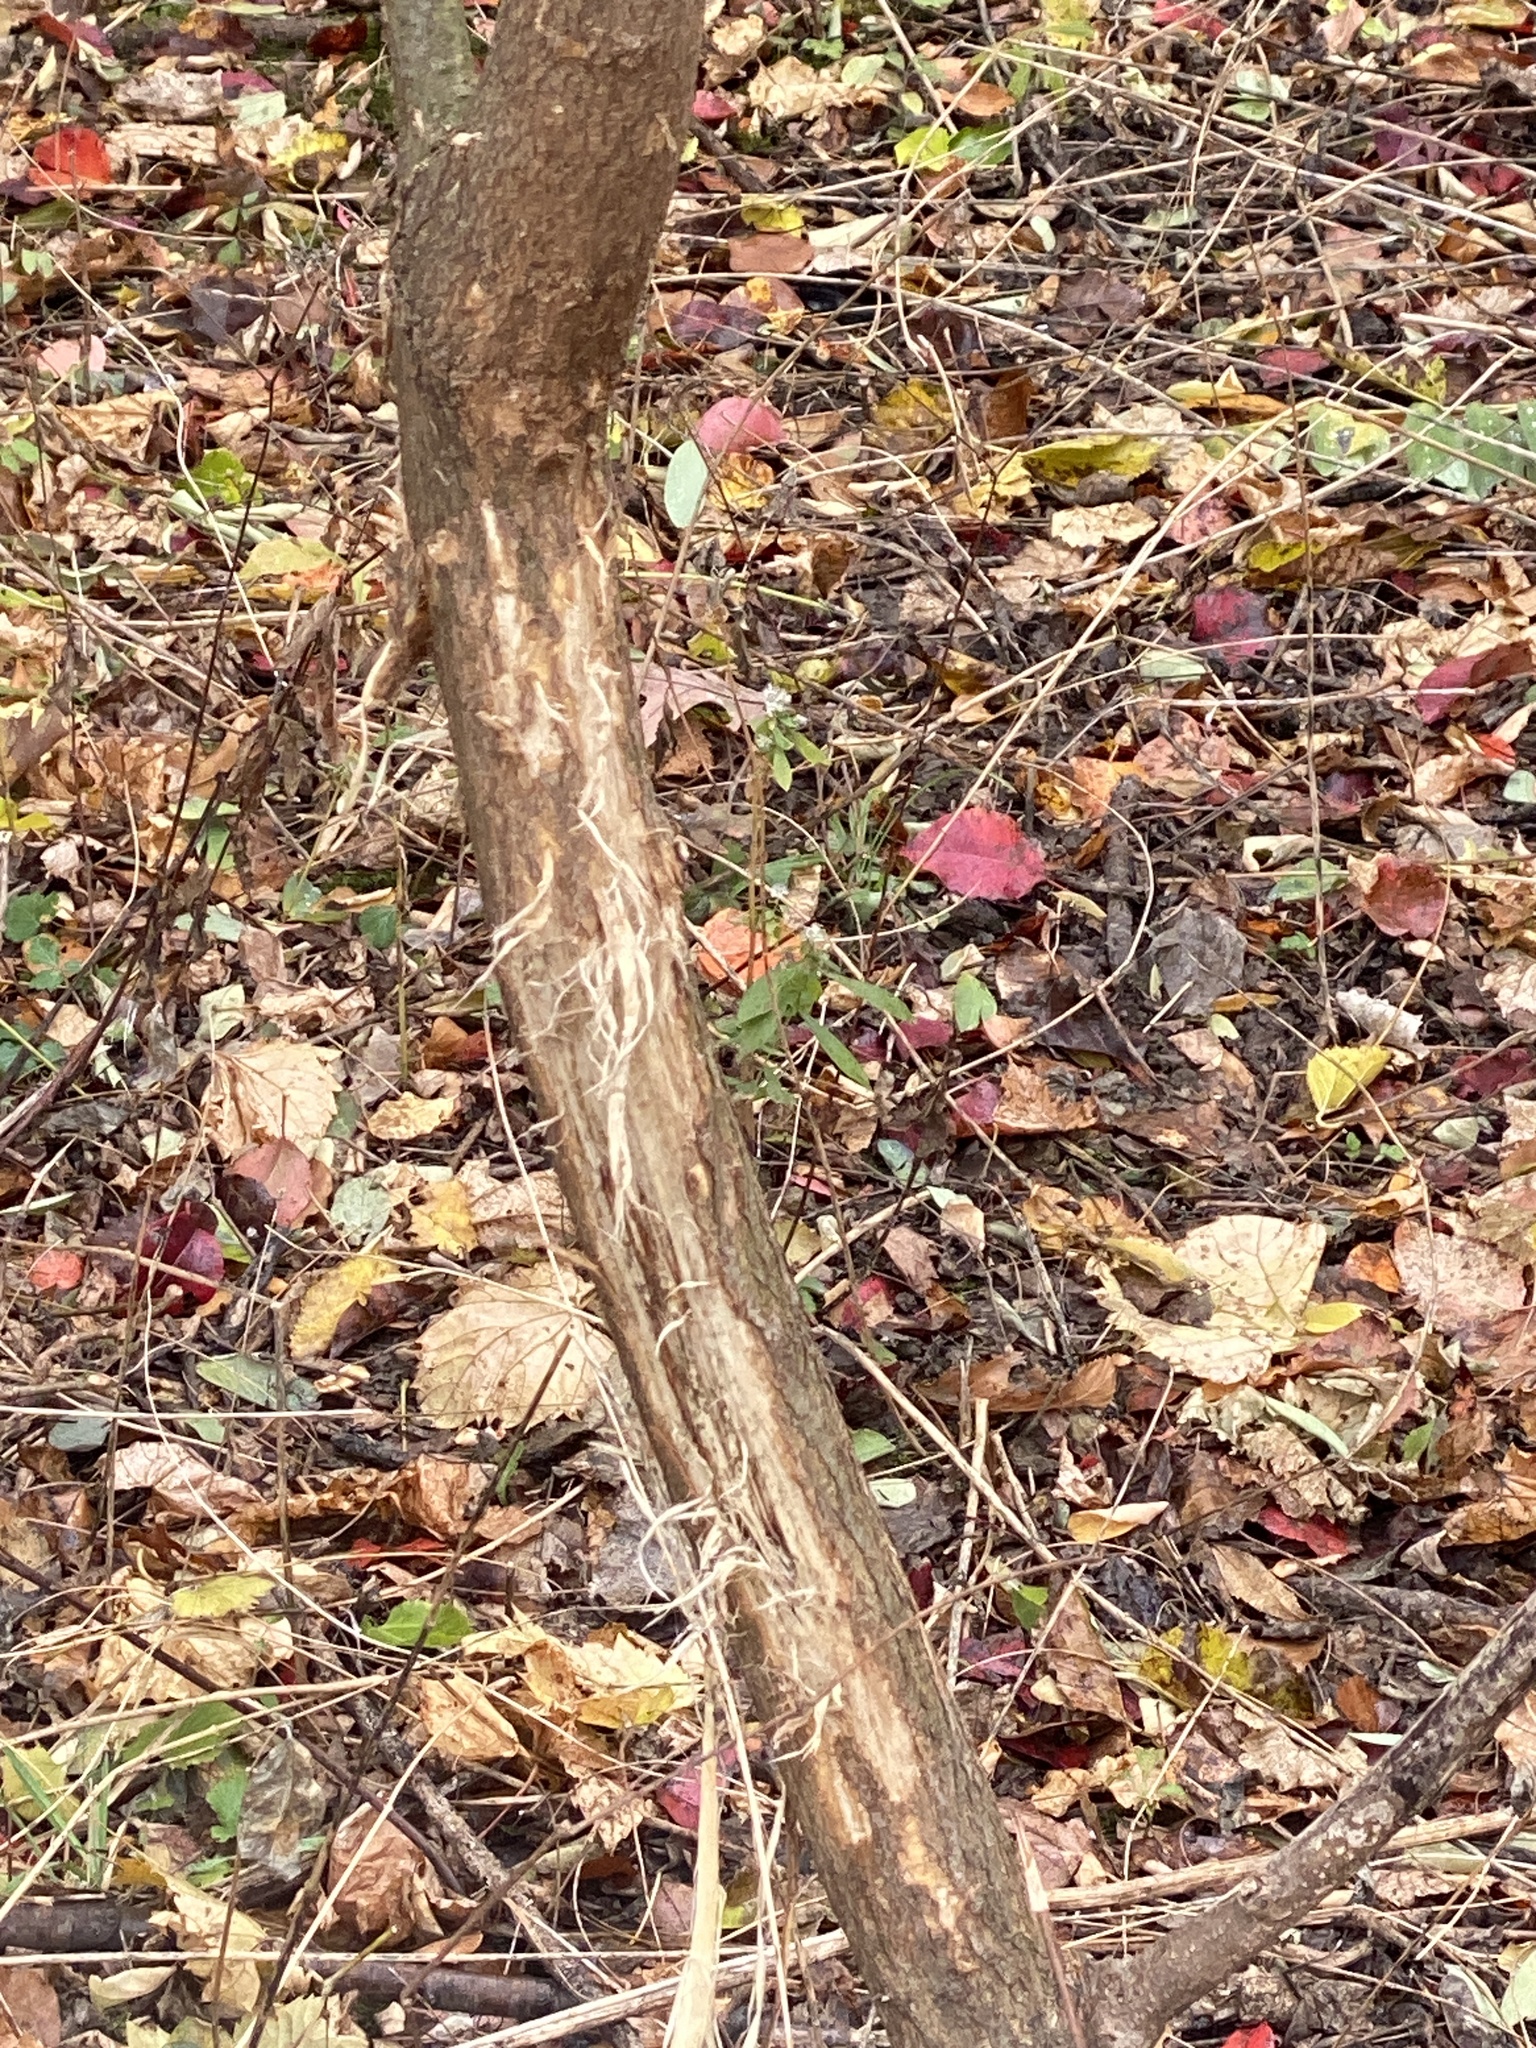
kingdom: Animalia
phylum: Chordata
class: Mammalia
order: Artiodactyla
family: Cervidae
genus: Odocoileus
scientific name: Odocoileus virginianus
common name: White-tailed deer
